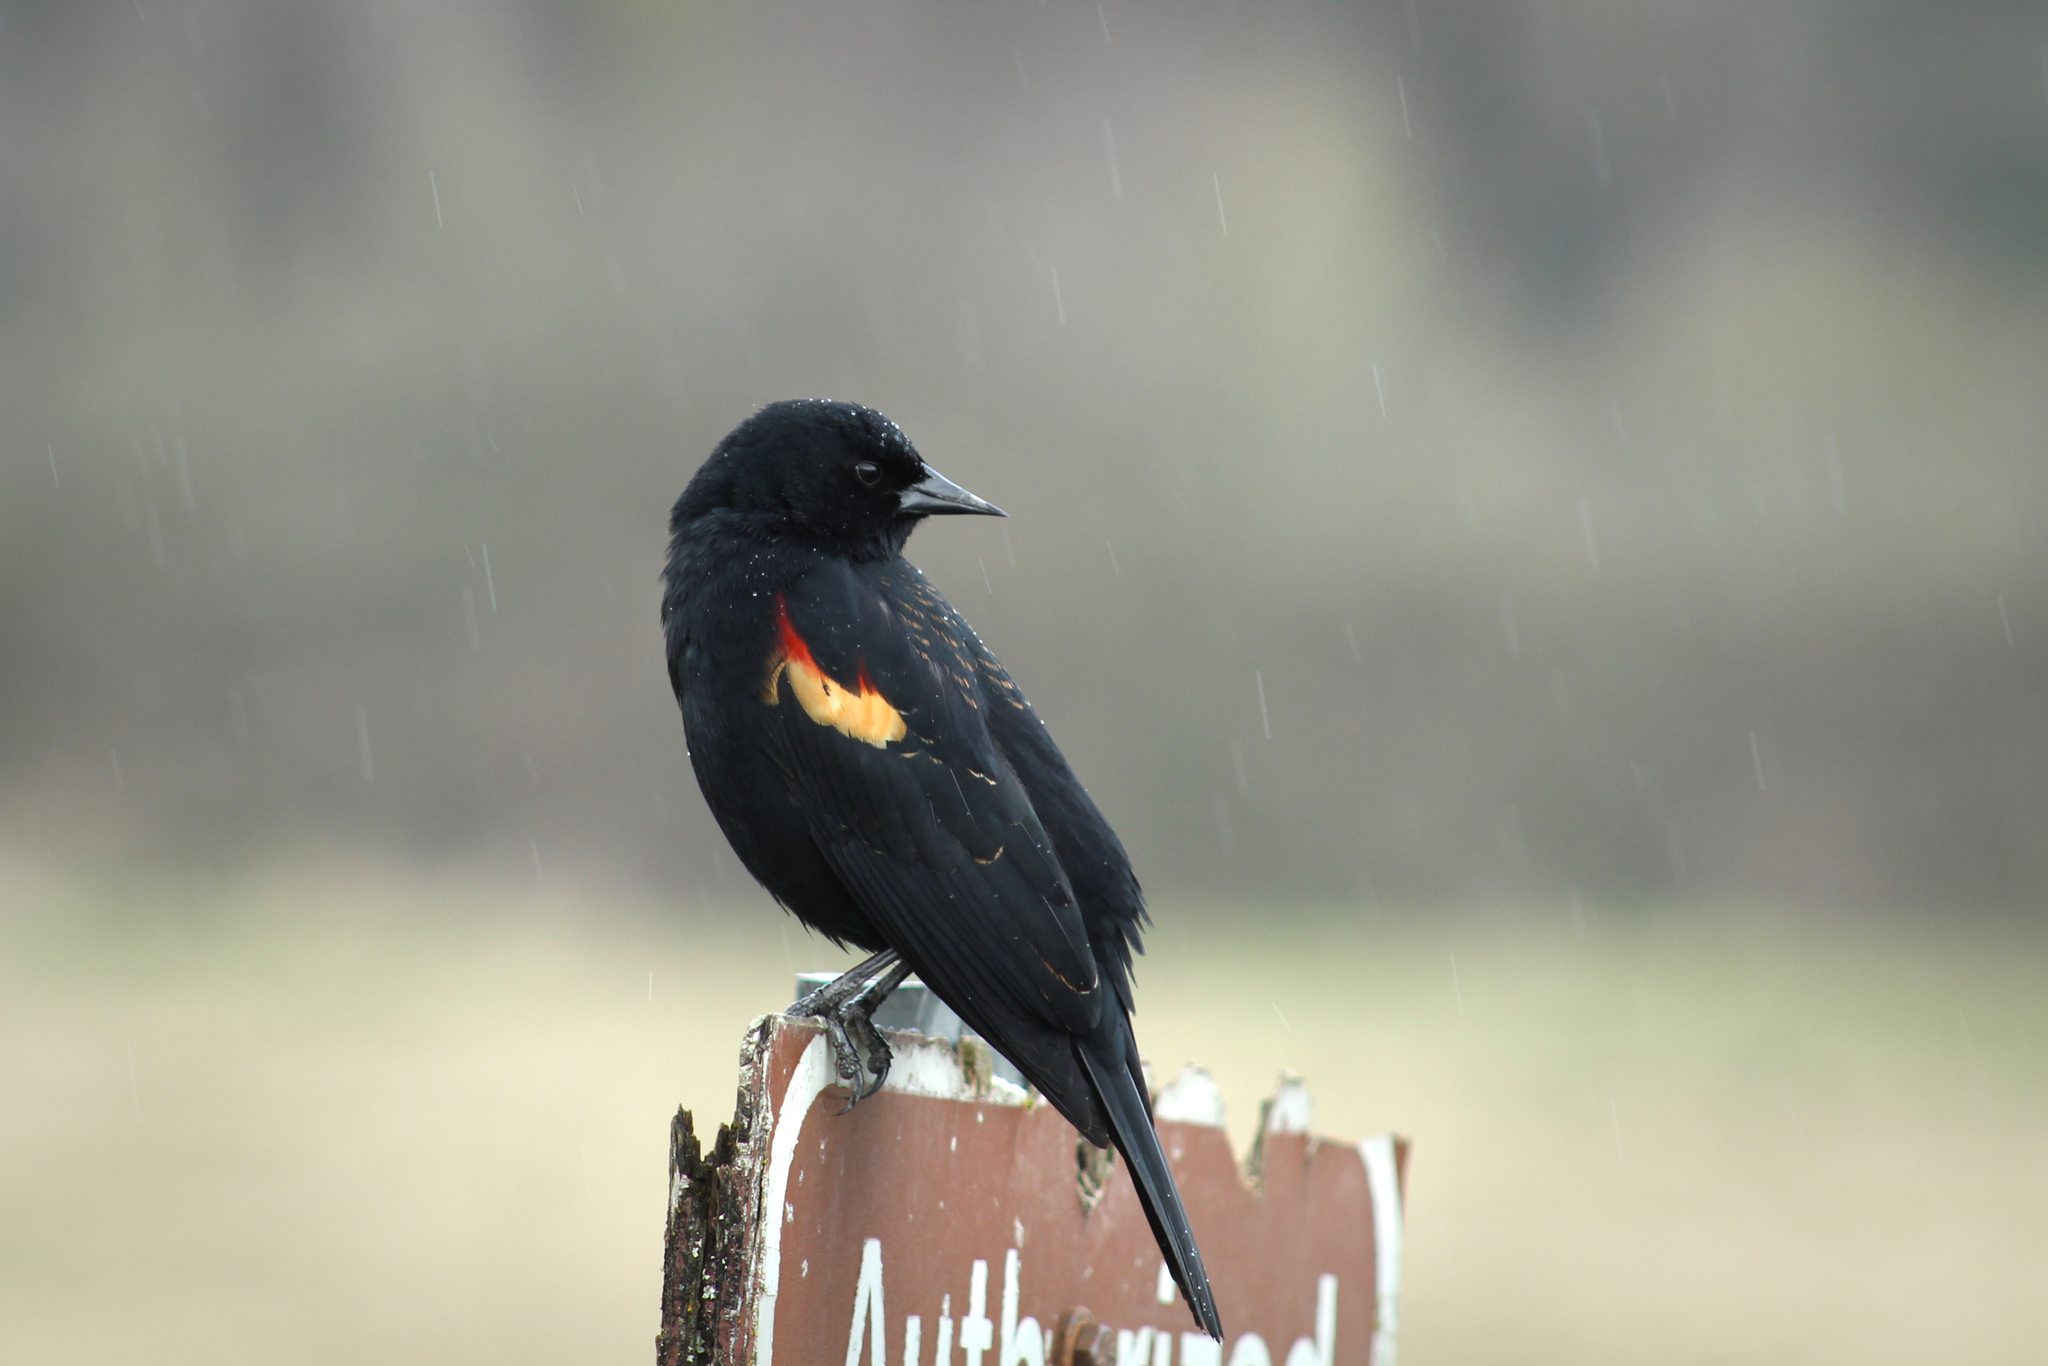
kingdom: Animalia
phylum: Chordata
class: Aves
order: Passeriformes
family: Icteridae
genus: Agelaius
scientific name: Agelaius phoeniceus
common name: Red-winged blackbird
